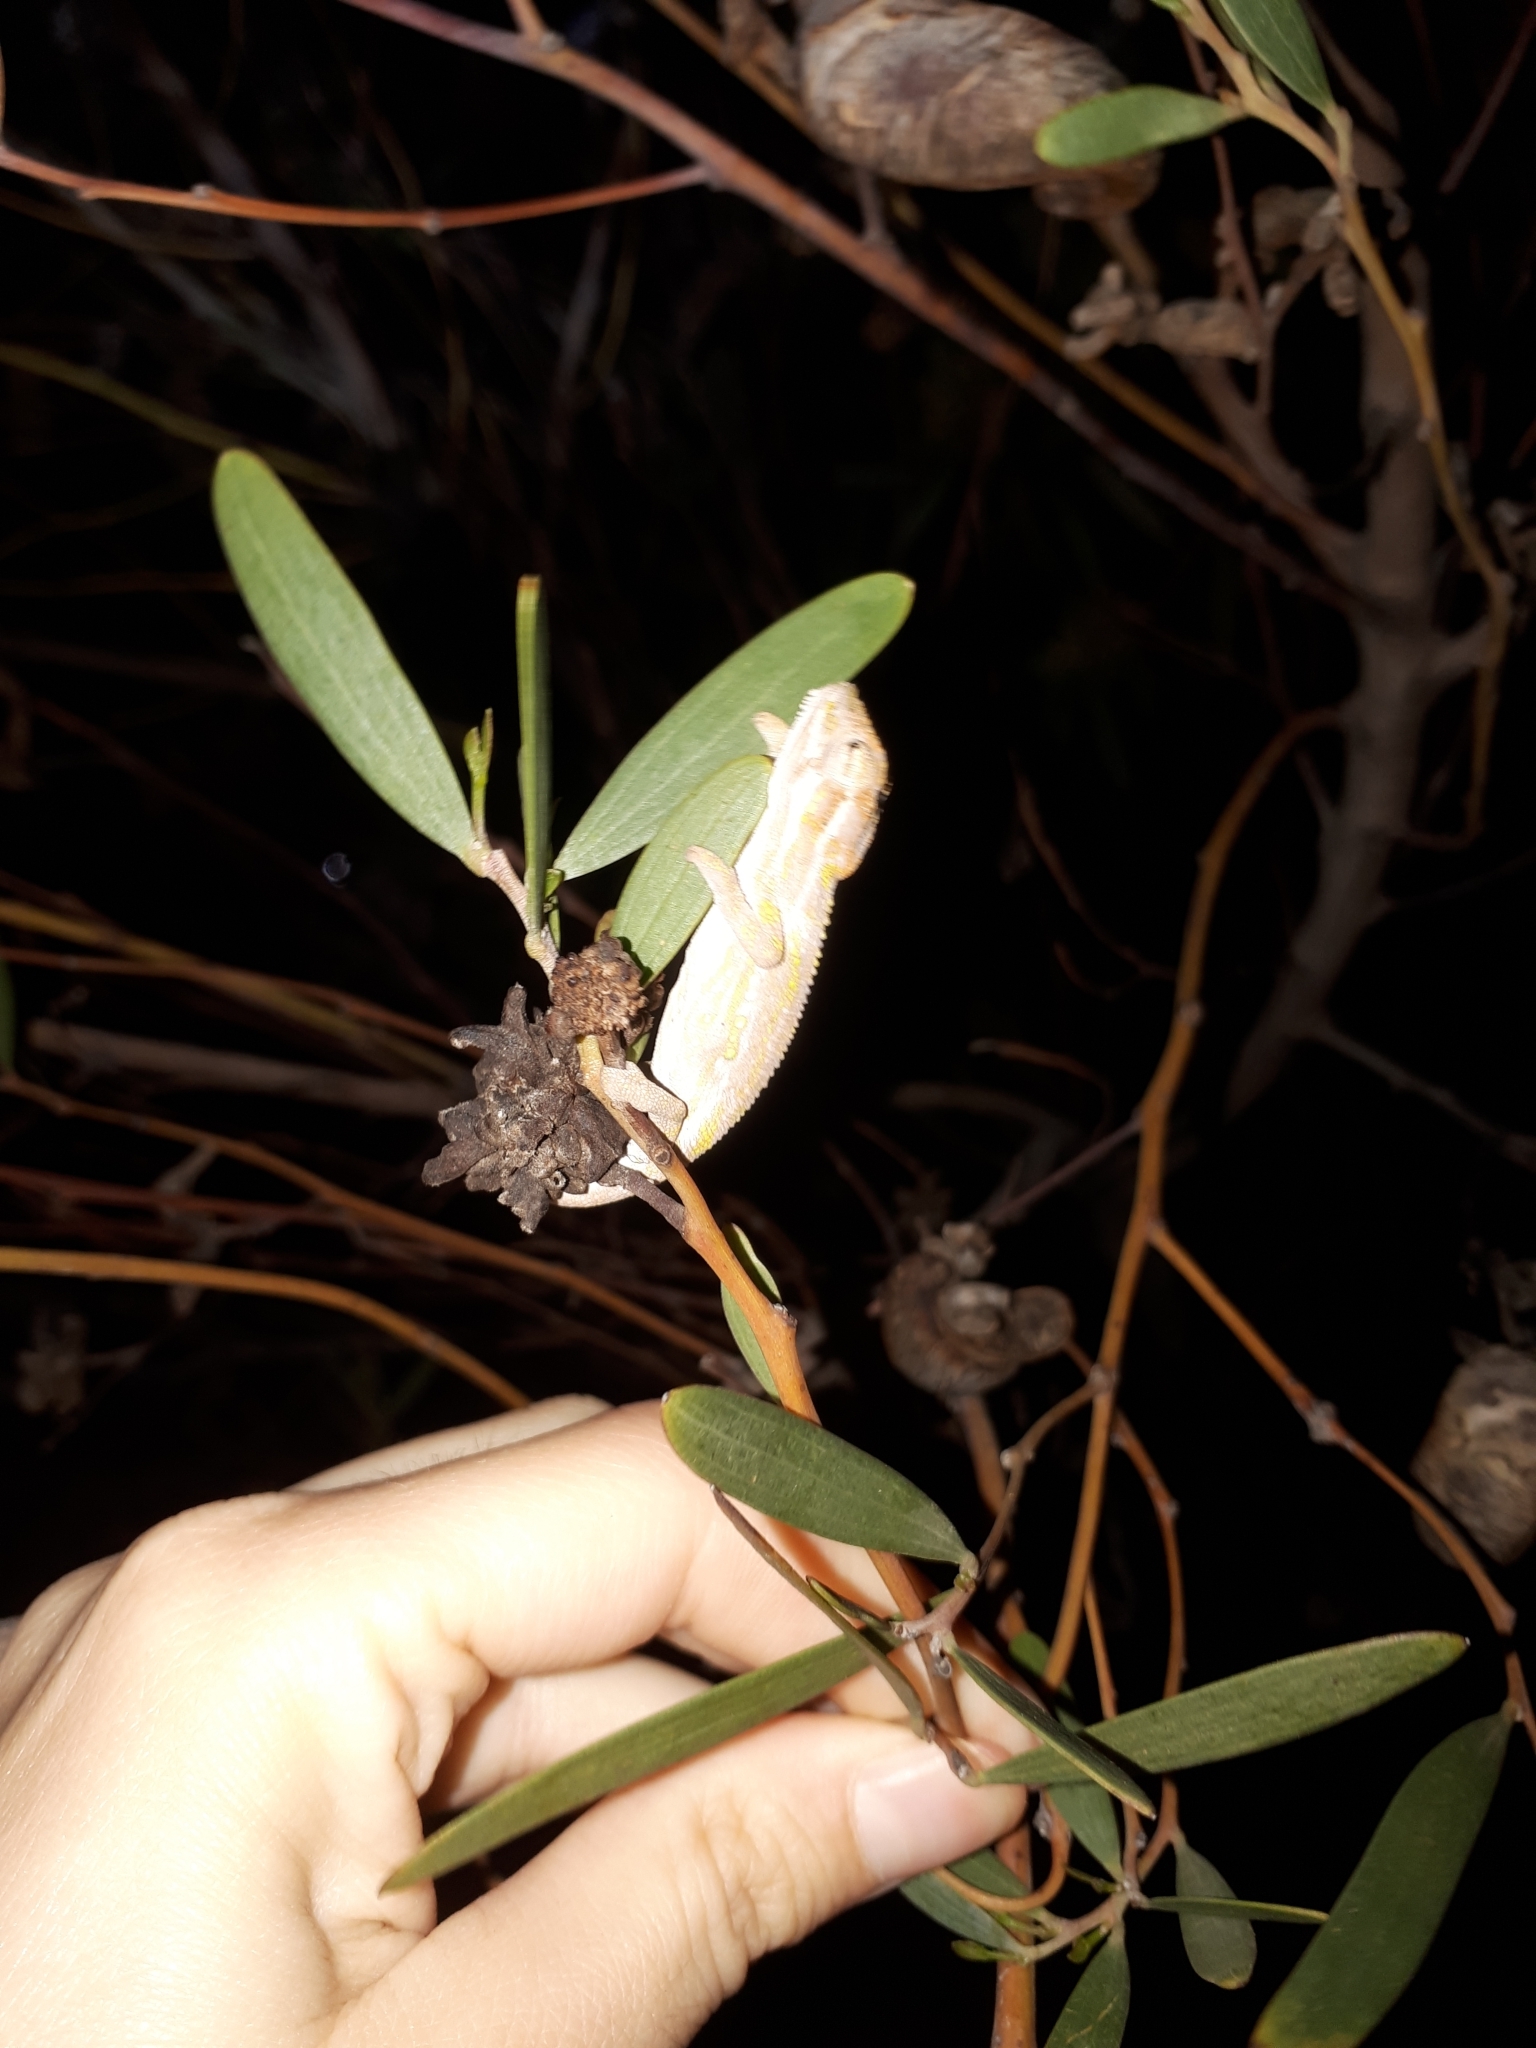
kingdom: Animalia
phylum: Chordata
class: Squamata
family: Chamaeleonidae
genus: Bradypodion
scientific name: Bradypodion pumilum
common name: Cape dwarf chameleon
